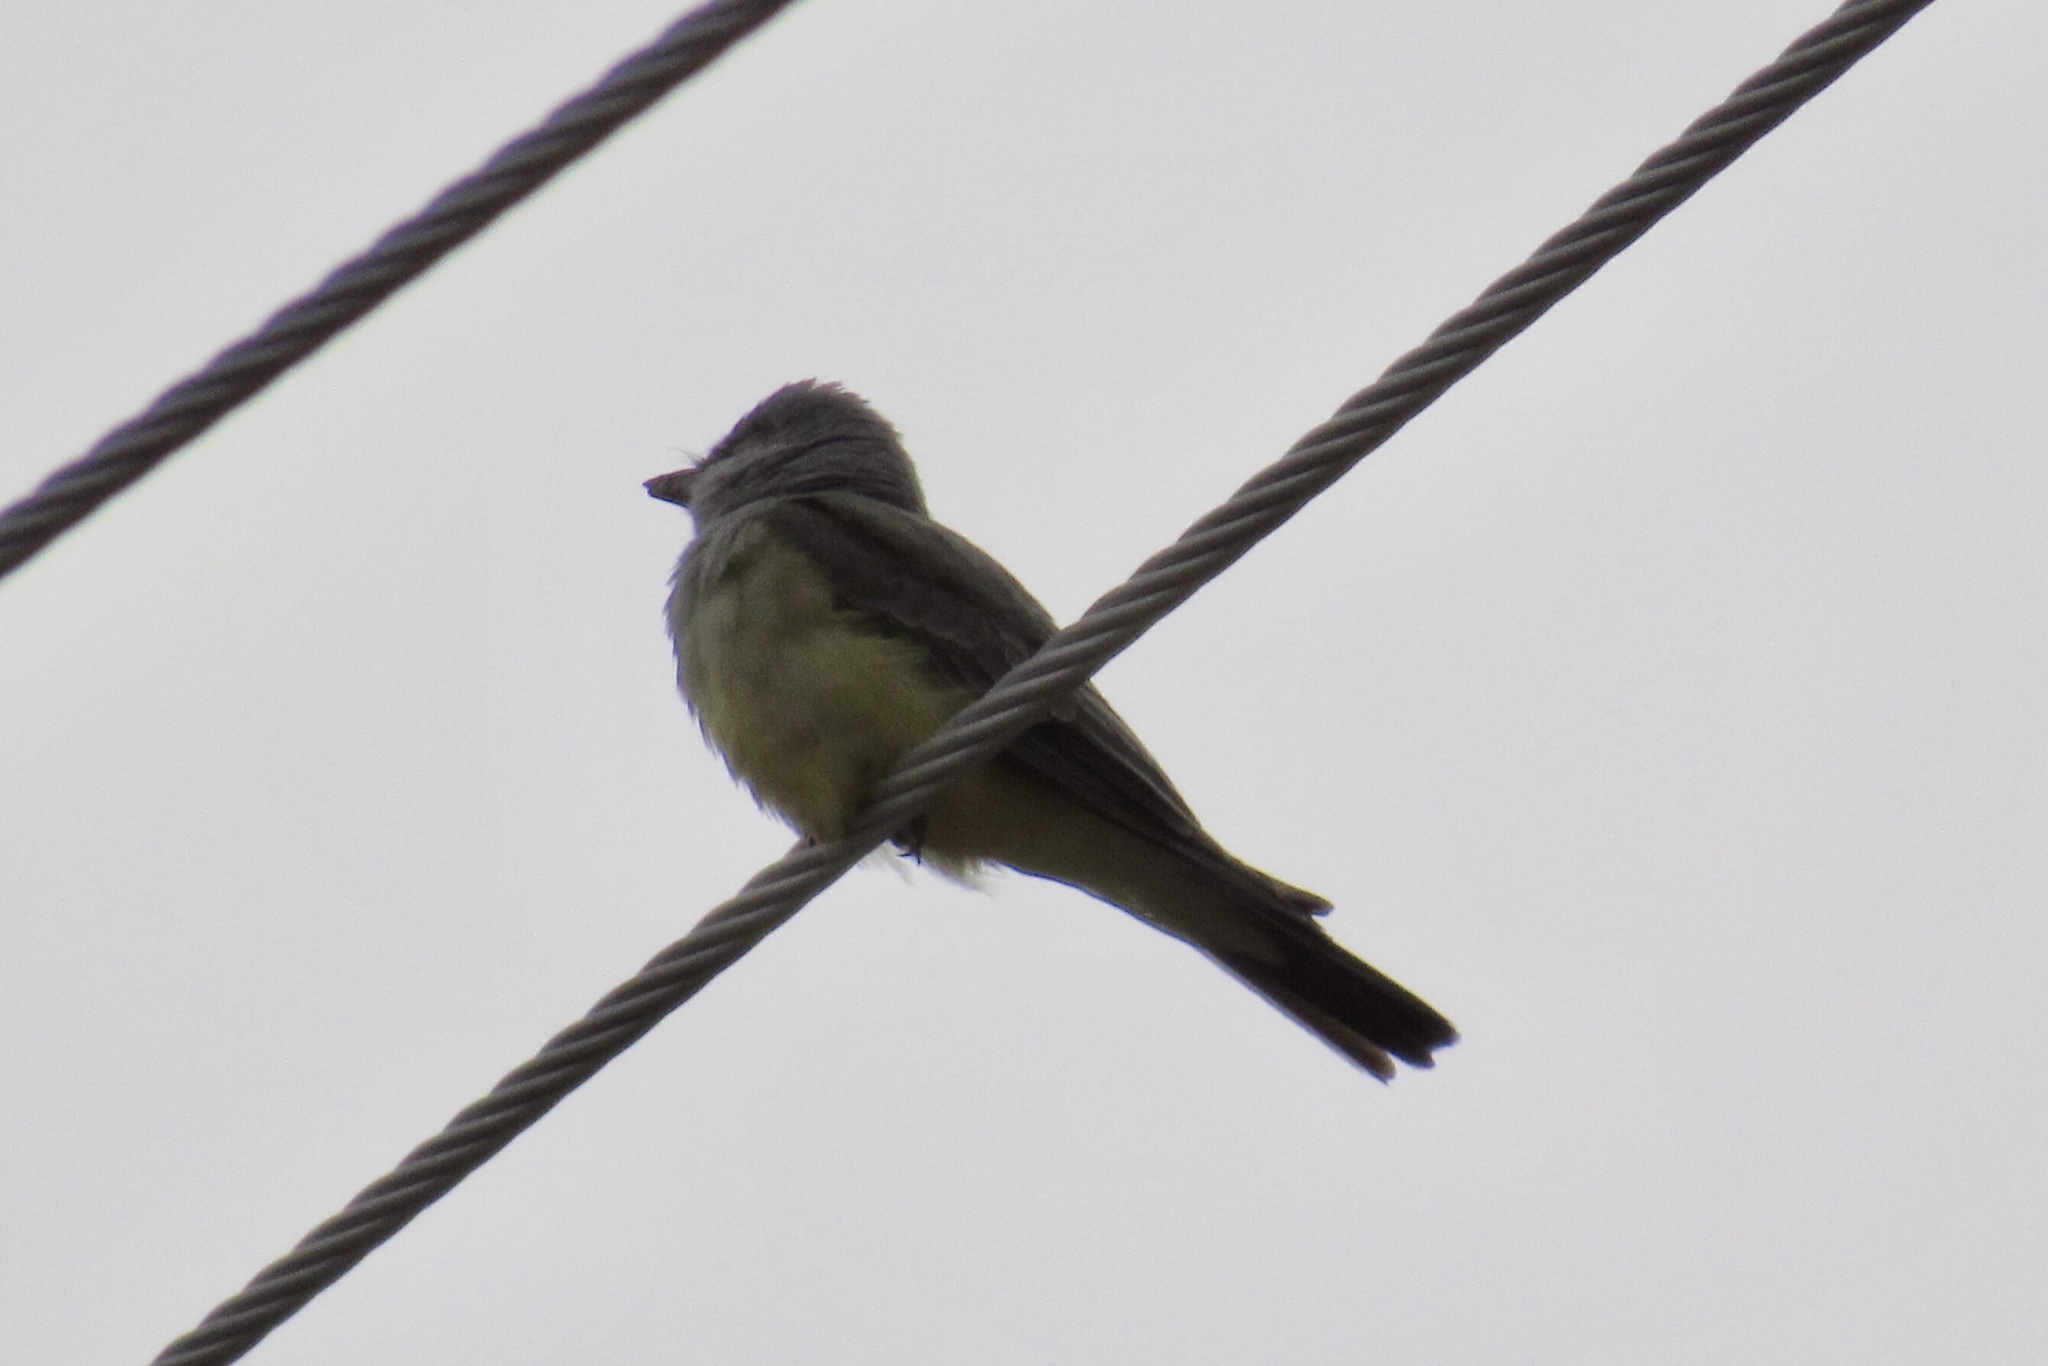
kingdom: Animalia
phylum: Chordata
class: Aves
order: Passeriformes
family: Tyrannidae
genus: Tyrannus
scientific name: Tyrannus verticalis
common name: Western kingbird
